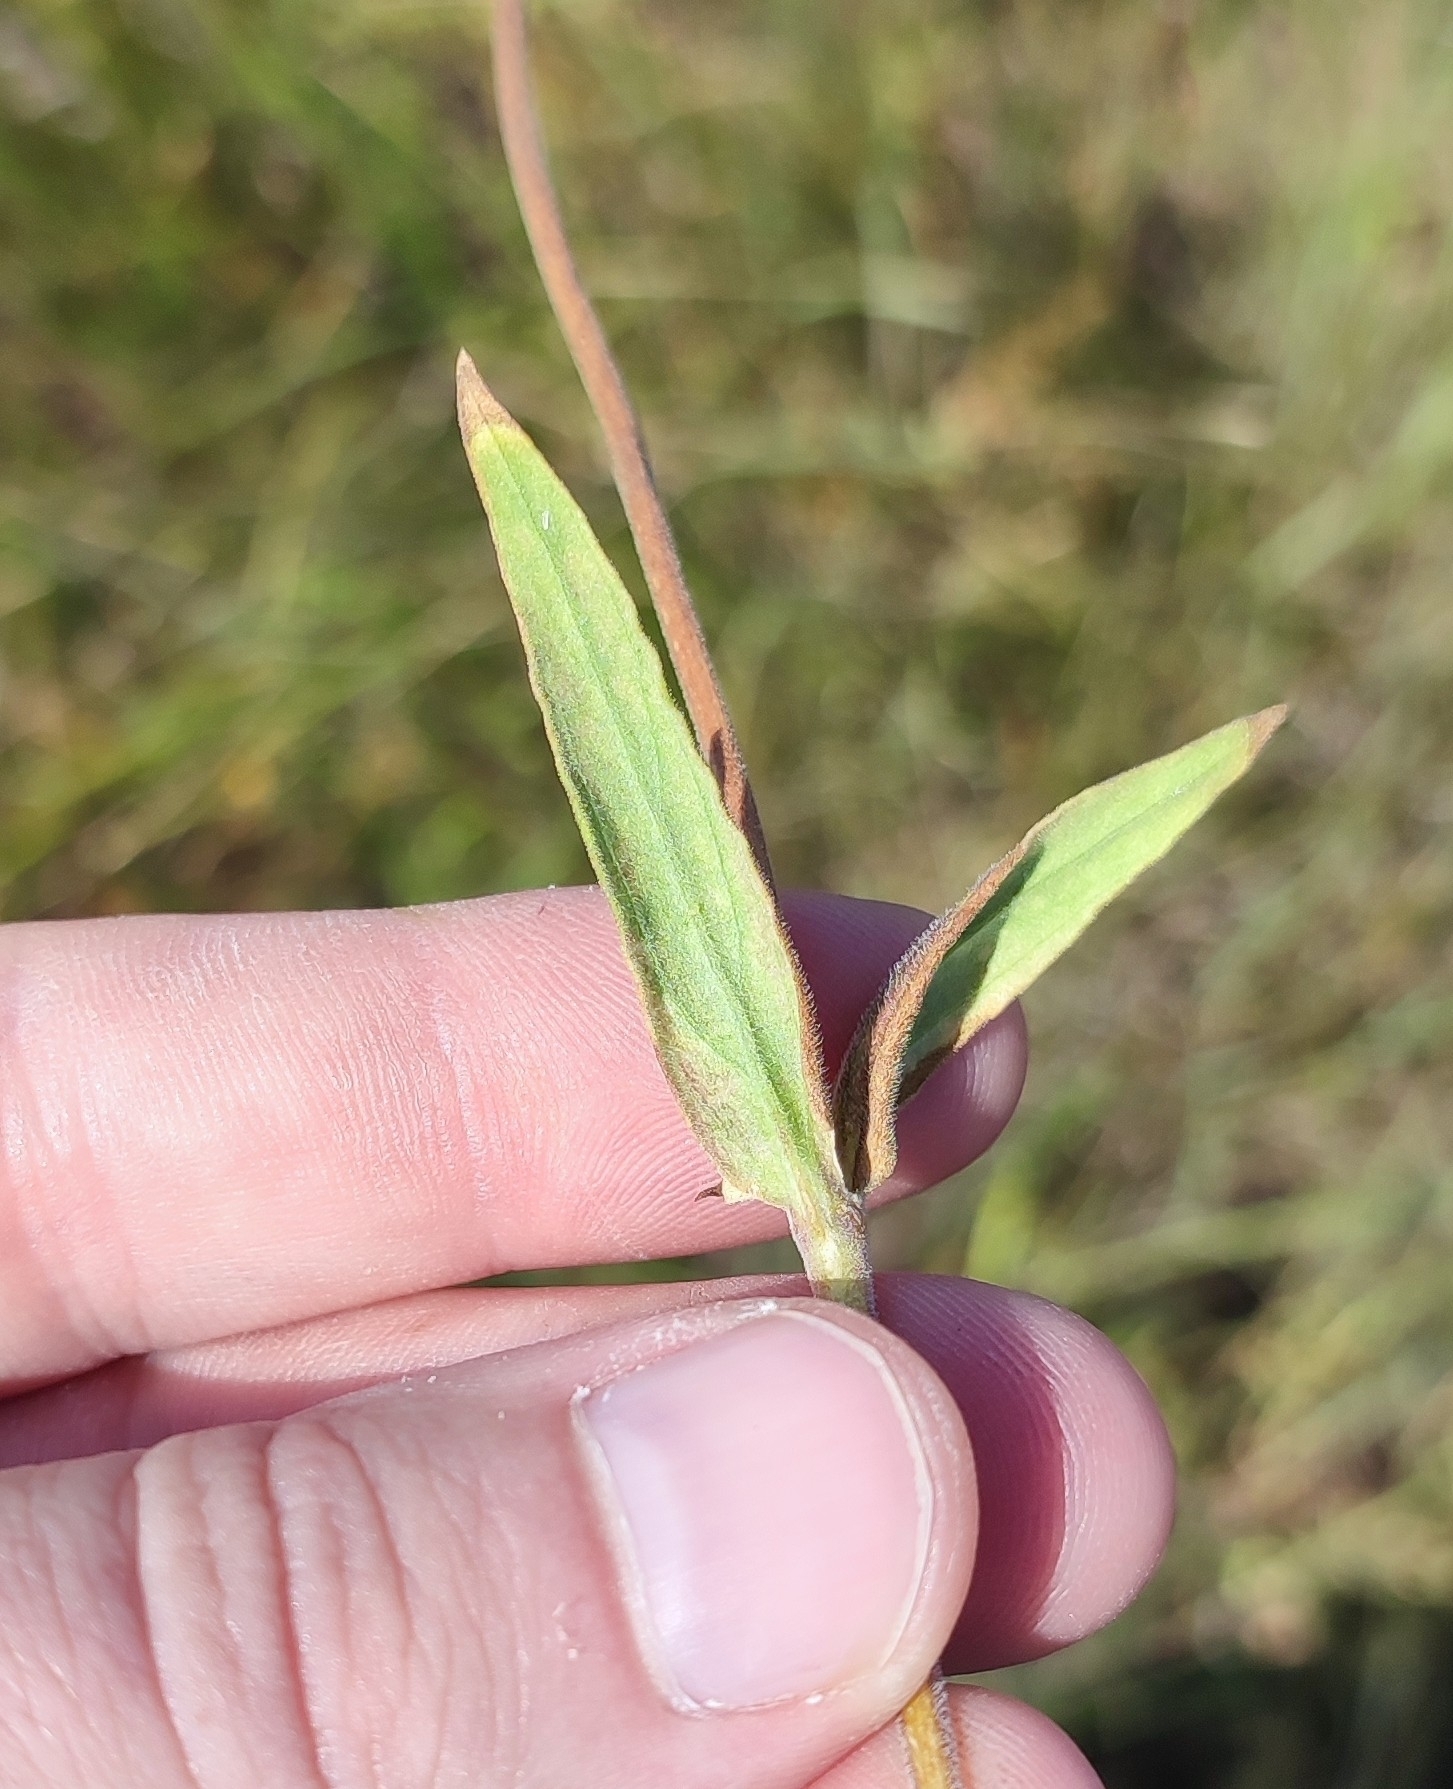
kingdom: Plantae
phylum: Tracheophyta
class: Magnoliopsida
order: Caryophyllales
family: Caryophyllaceae
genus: Silene
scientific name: Silene latifolia
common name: White campion
